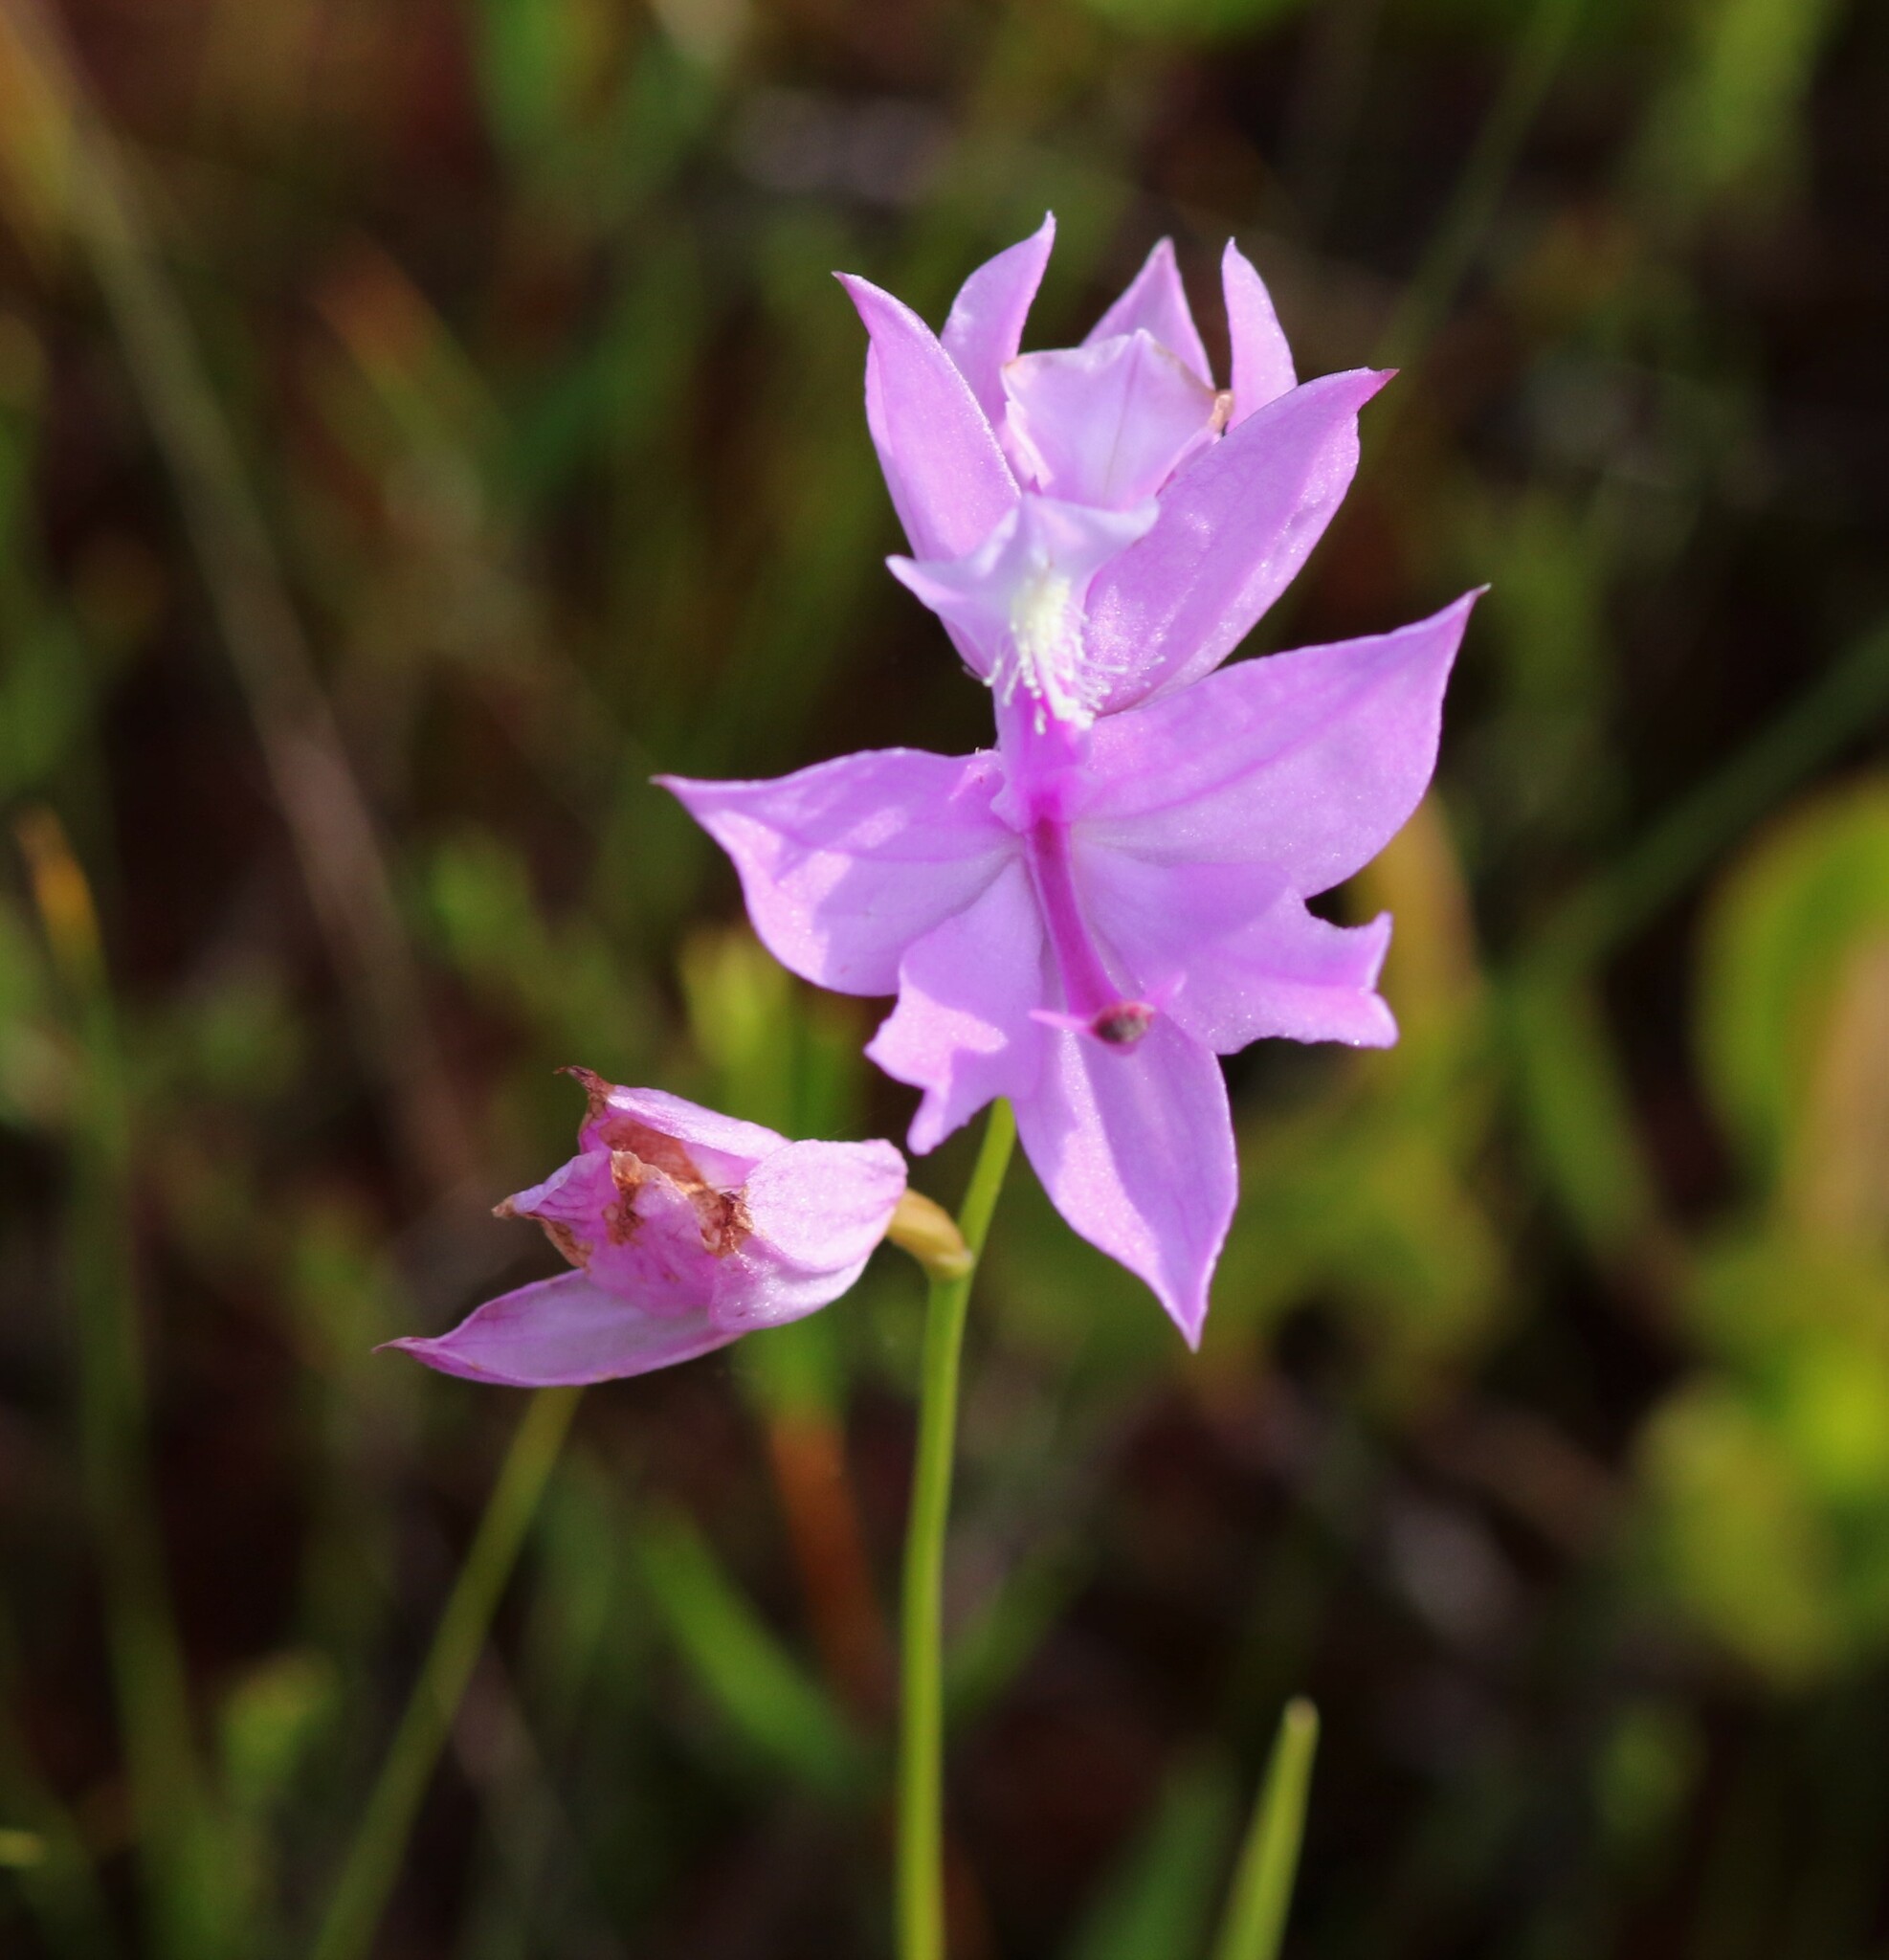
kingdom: Plantae
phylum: Tracheophyta
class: Liliopsida
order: Asparagales
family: Orchidaceae
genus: Calopogon
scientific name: Calopogon tuberosus
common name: Grass-pink
